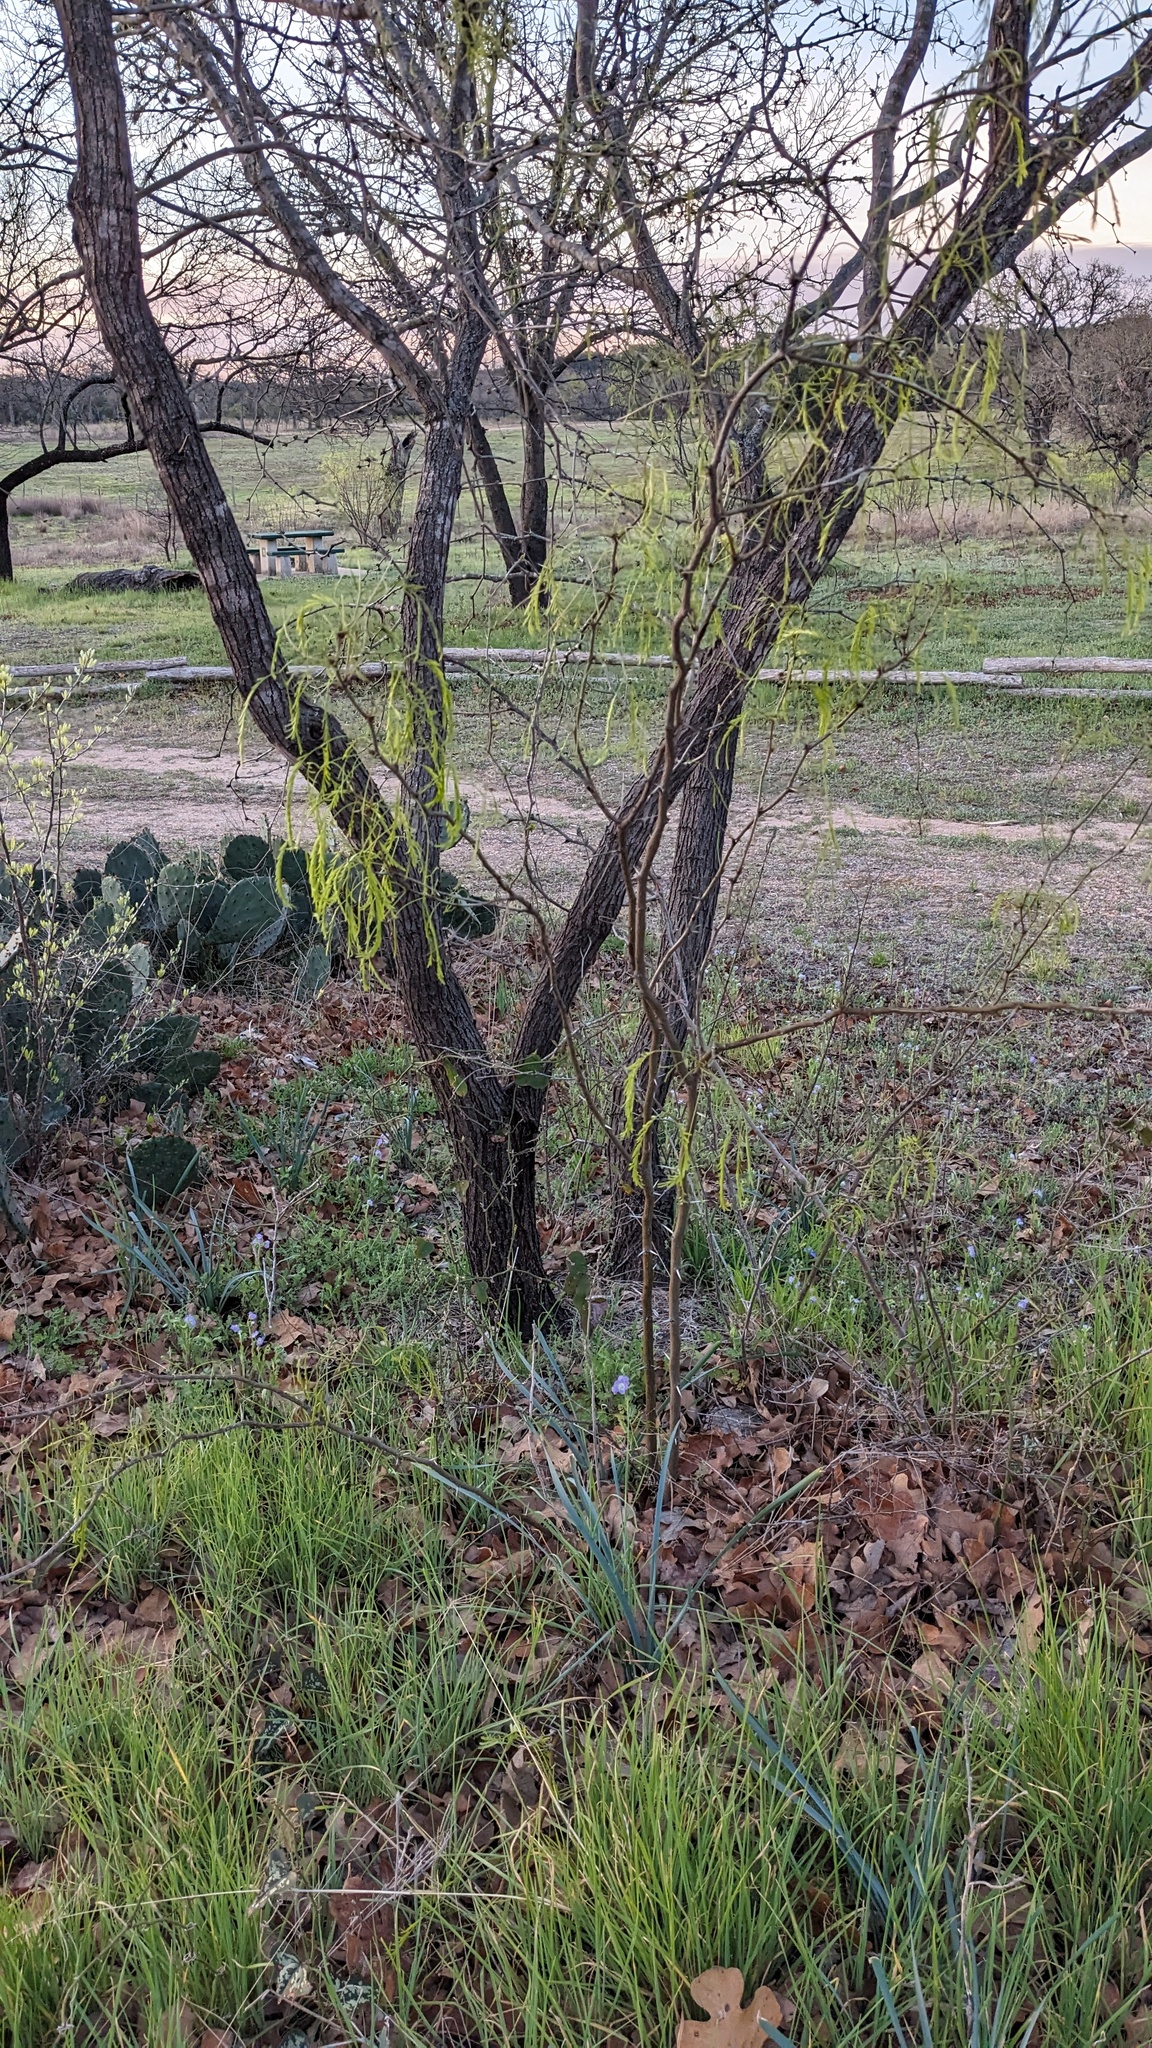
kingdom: Plantae
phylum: Tracheophyta
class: Magnoliopsida
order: Fabales
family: Fabaceae
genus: Prosopis
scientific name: Prosopis glandulosa
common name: Honey mesquite
